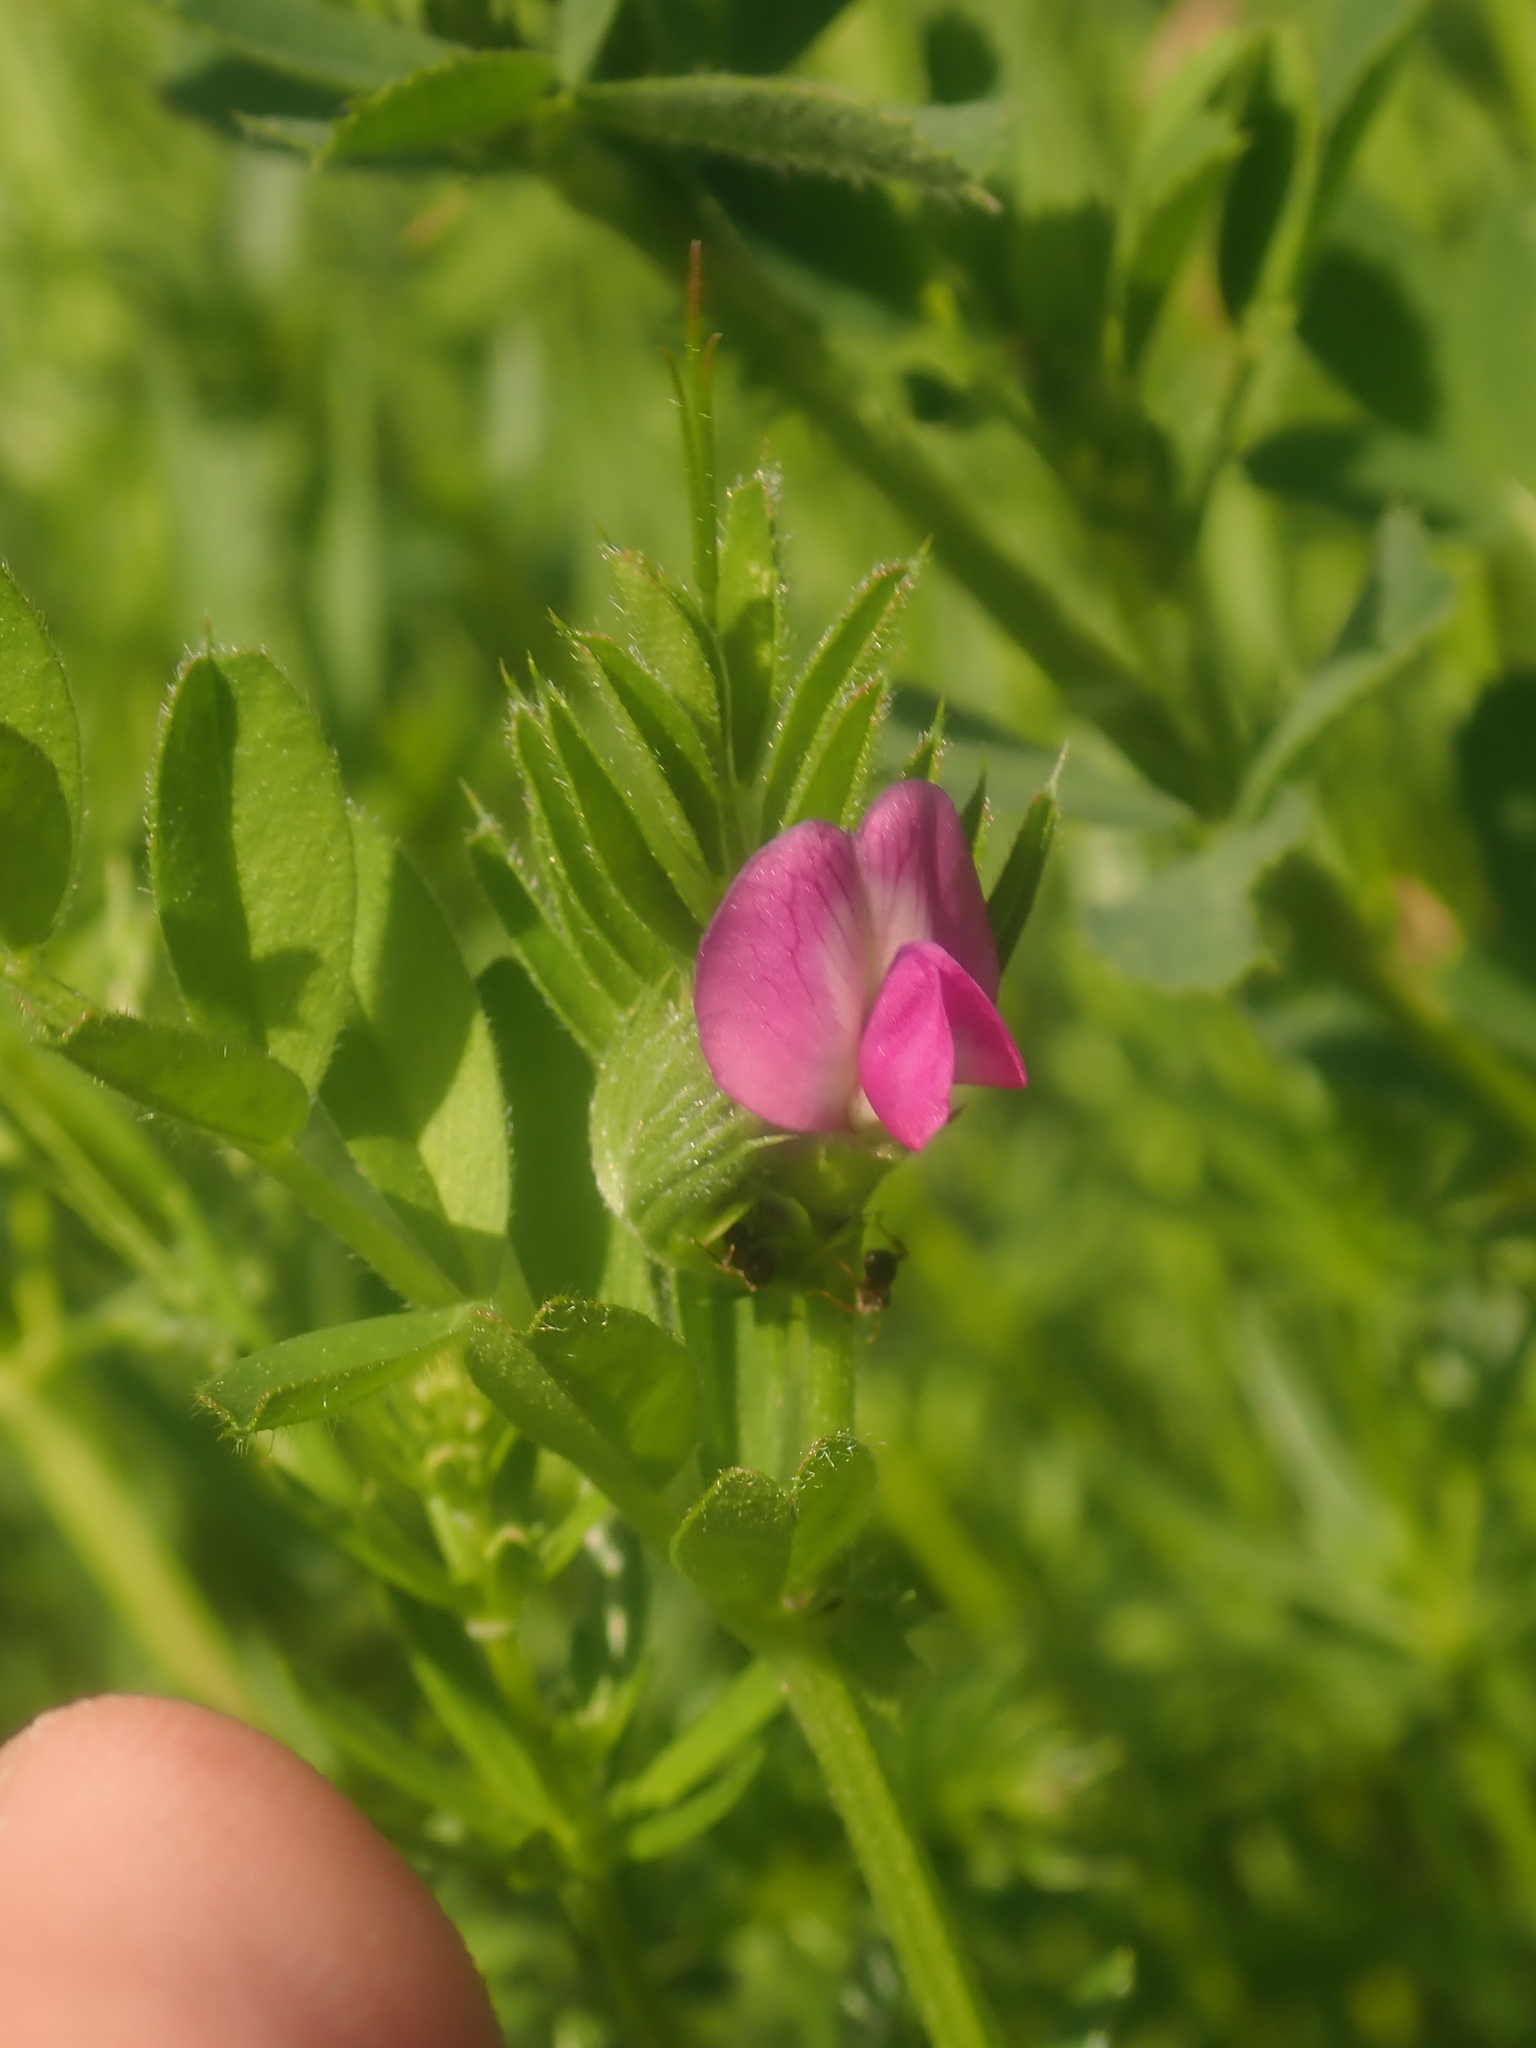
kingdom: Plantae
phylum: Tracheophyta
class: Magnoliopsida
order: Fabales
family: Fabaceae
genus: Vicia
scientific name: Vicia sativa
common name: Garden vetch
